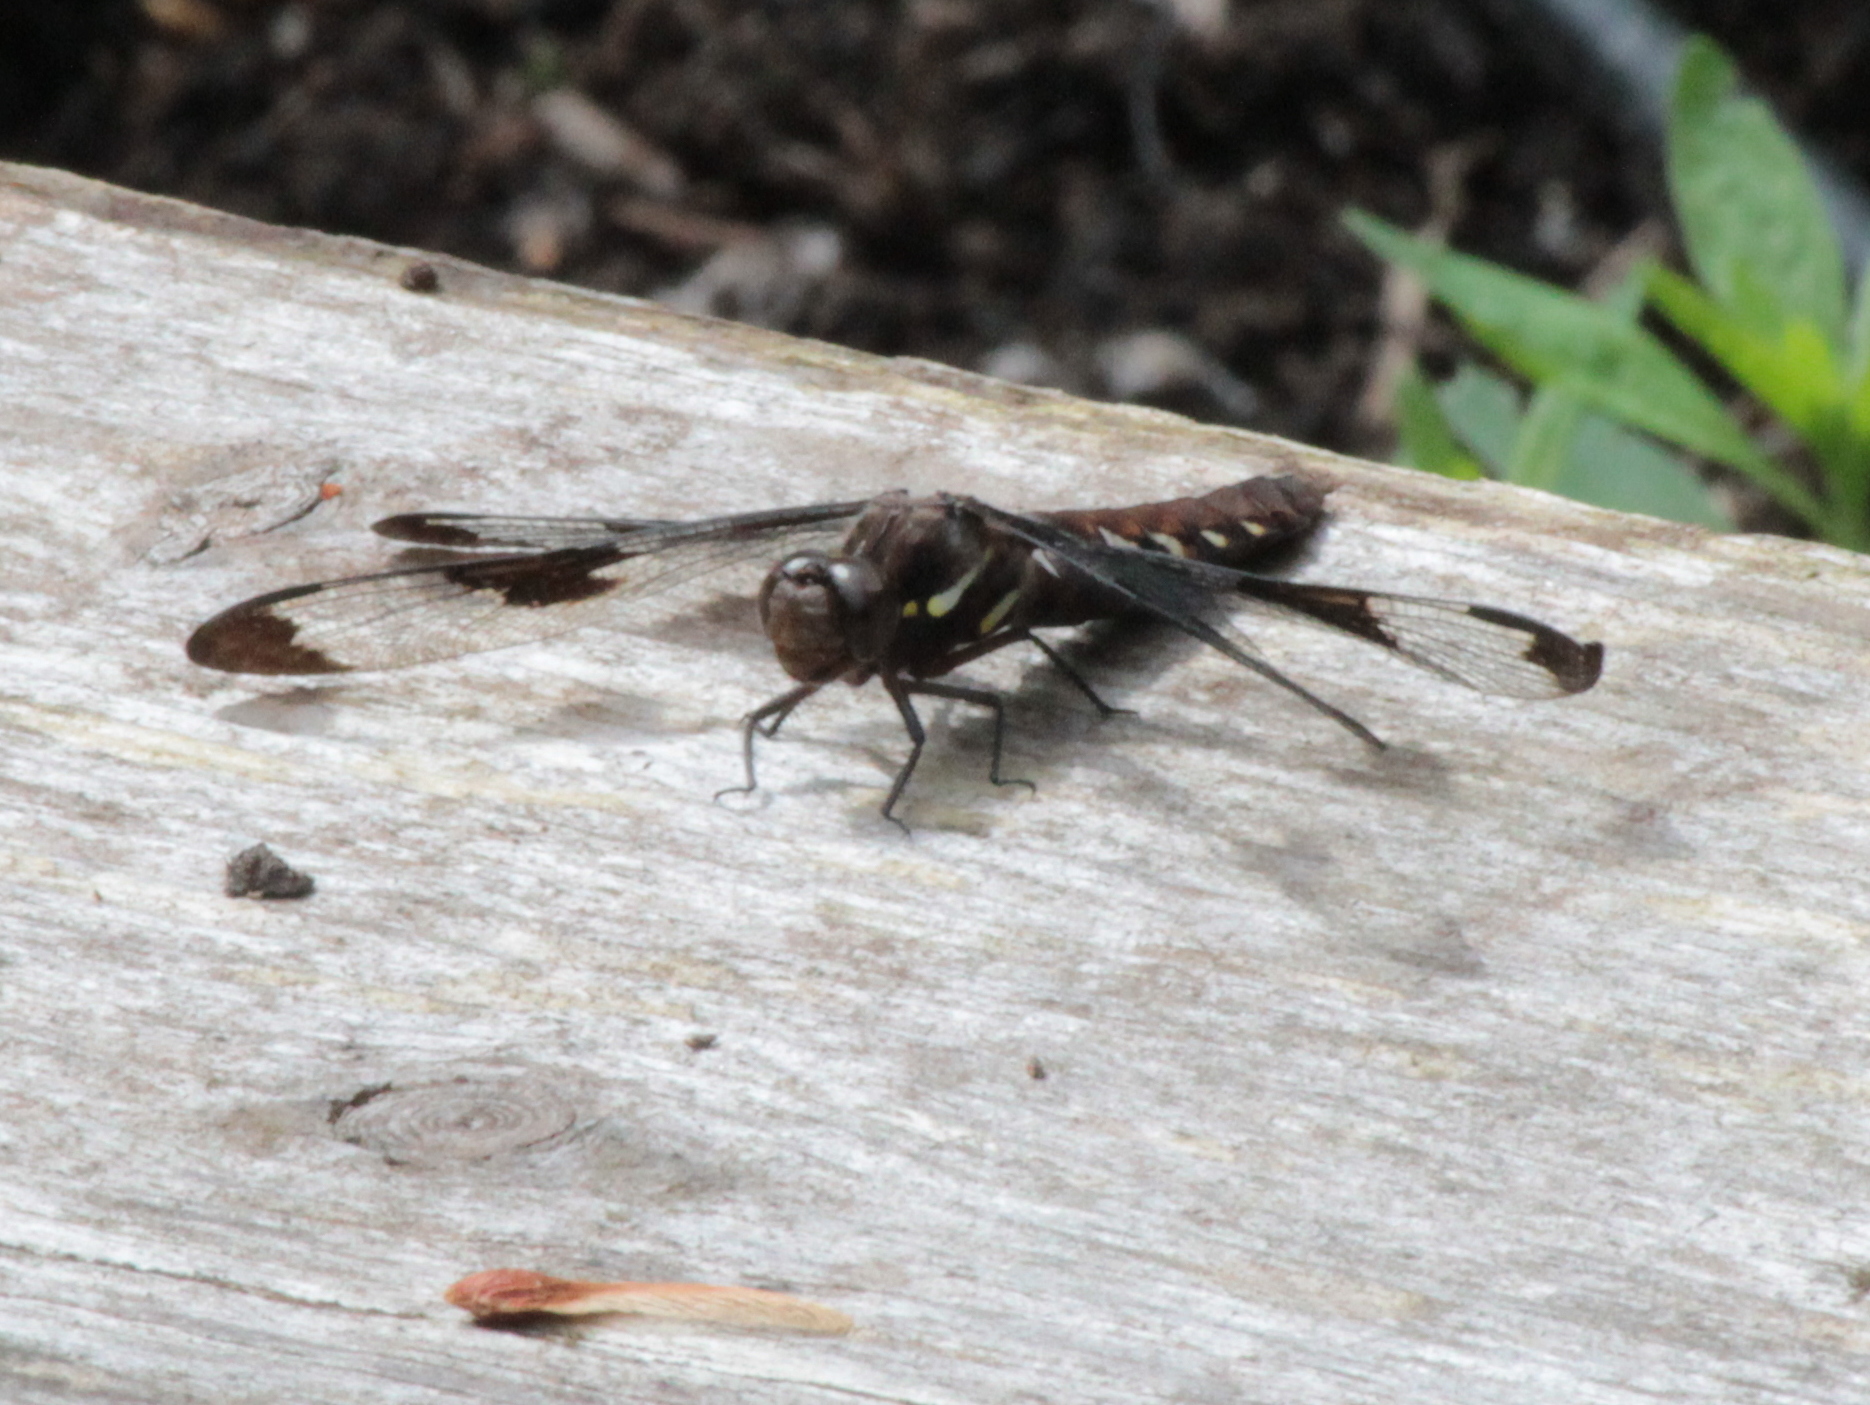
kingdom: Animalia
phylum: Arthropoda
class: Insecta
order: Odonata
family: Libellulidae
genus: Plathemis
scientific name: Plathemis lydia
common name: Common whitetail
